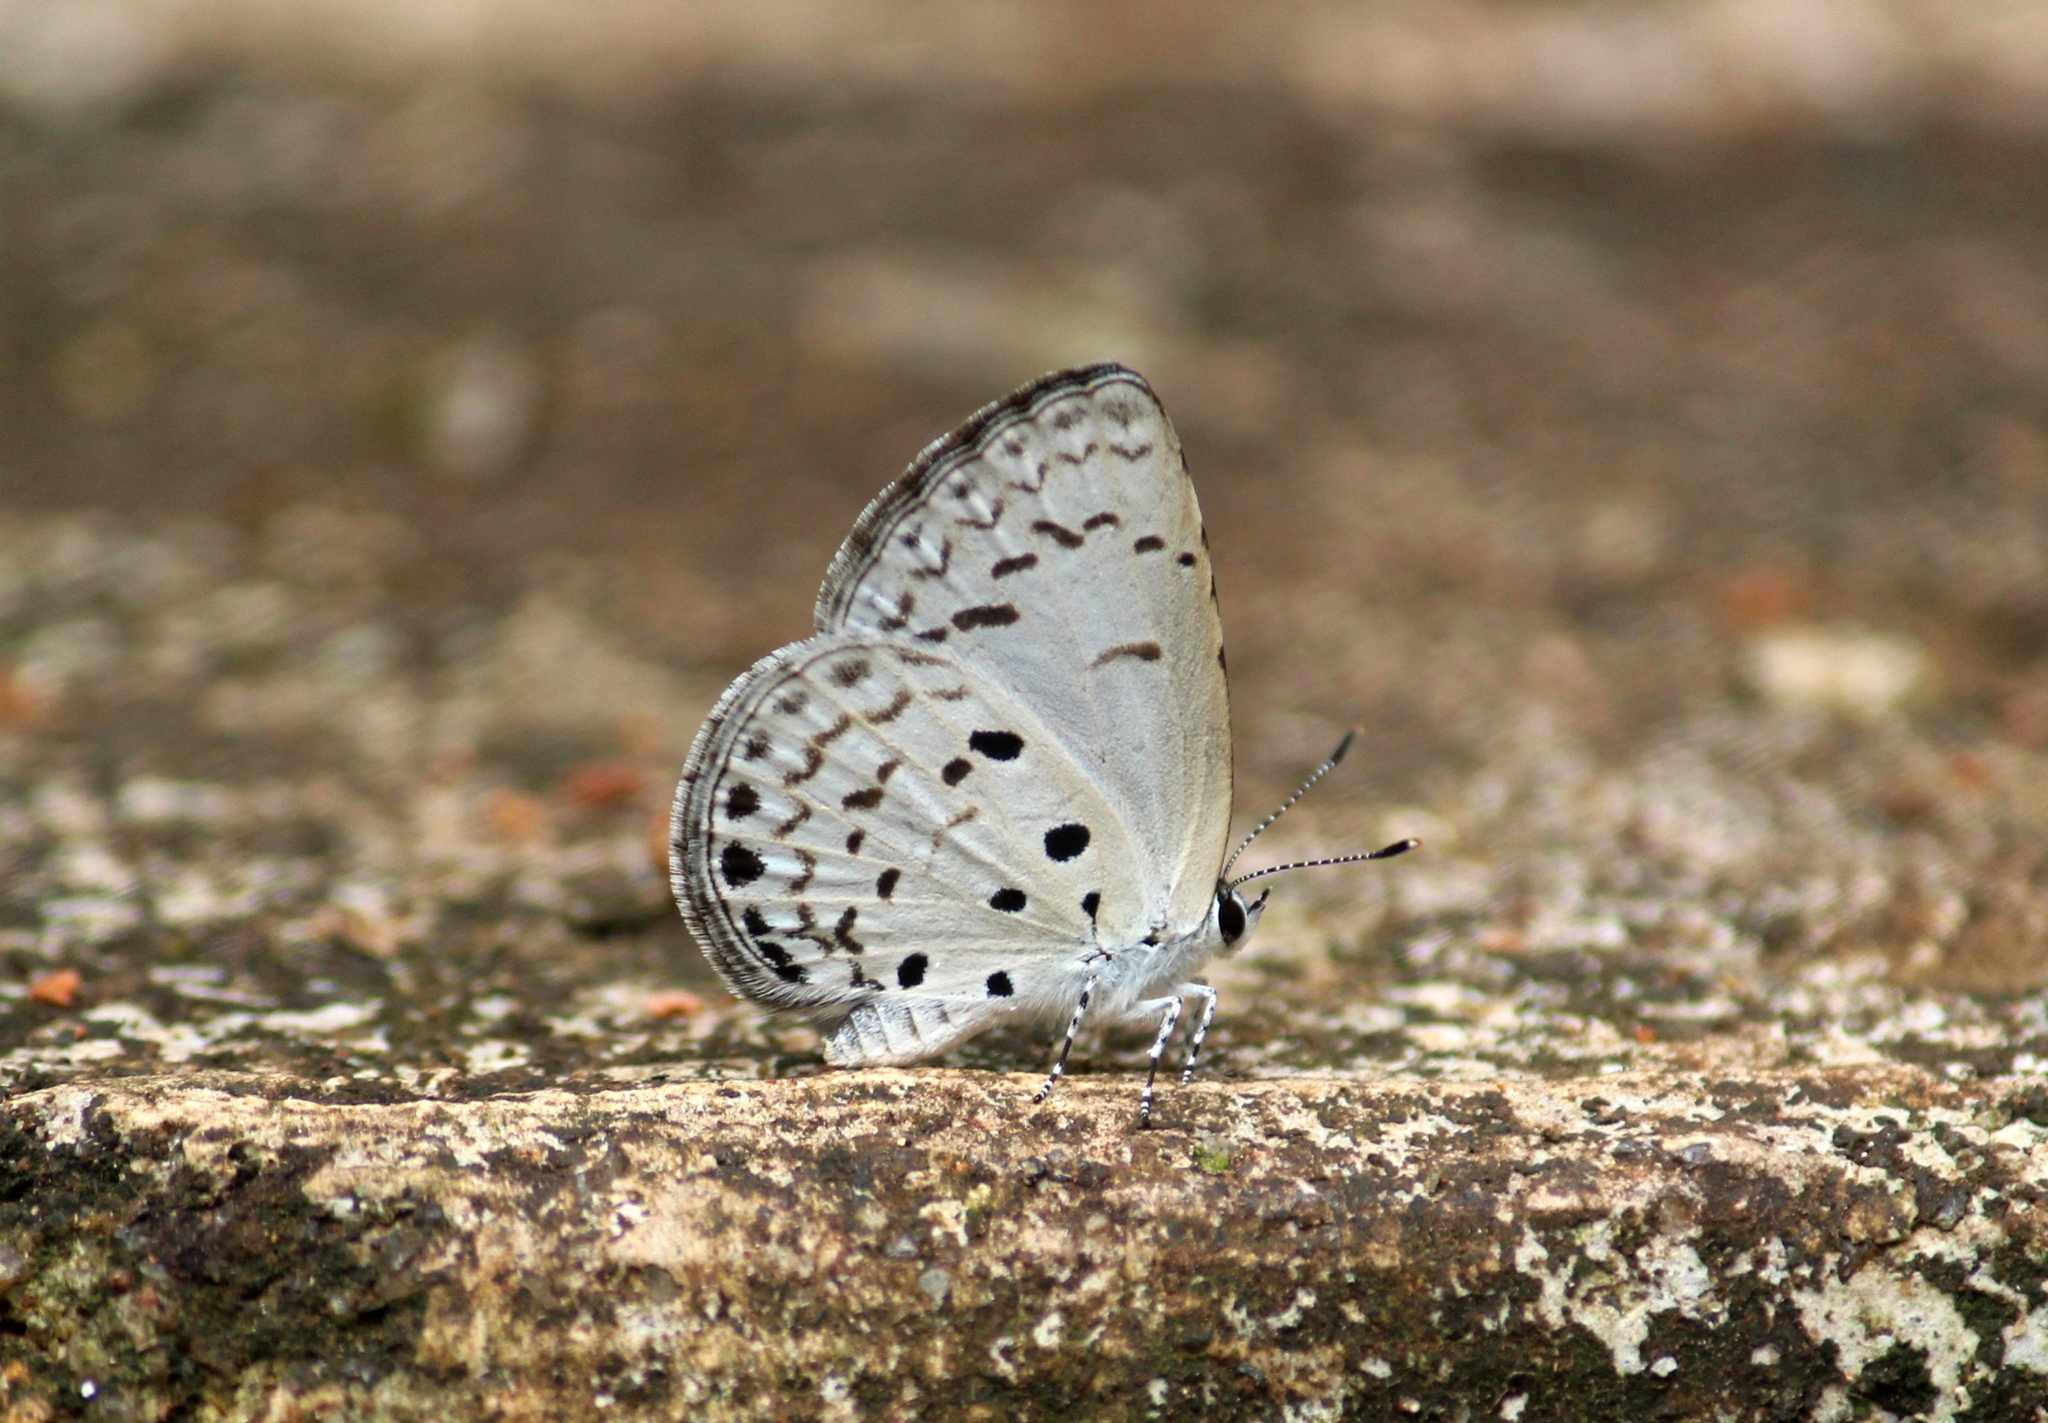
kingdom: Animalia
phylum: Arthropoda
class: Insecta
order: Lepidoptera
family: Lycaenidae
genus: Acytolepis
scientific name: Acytolepis puspa
